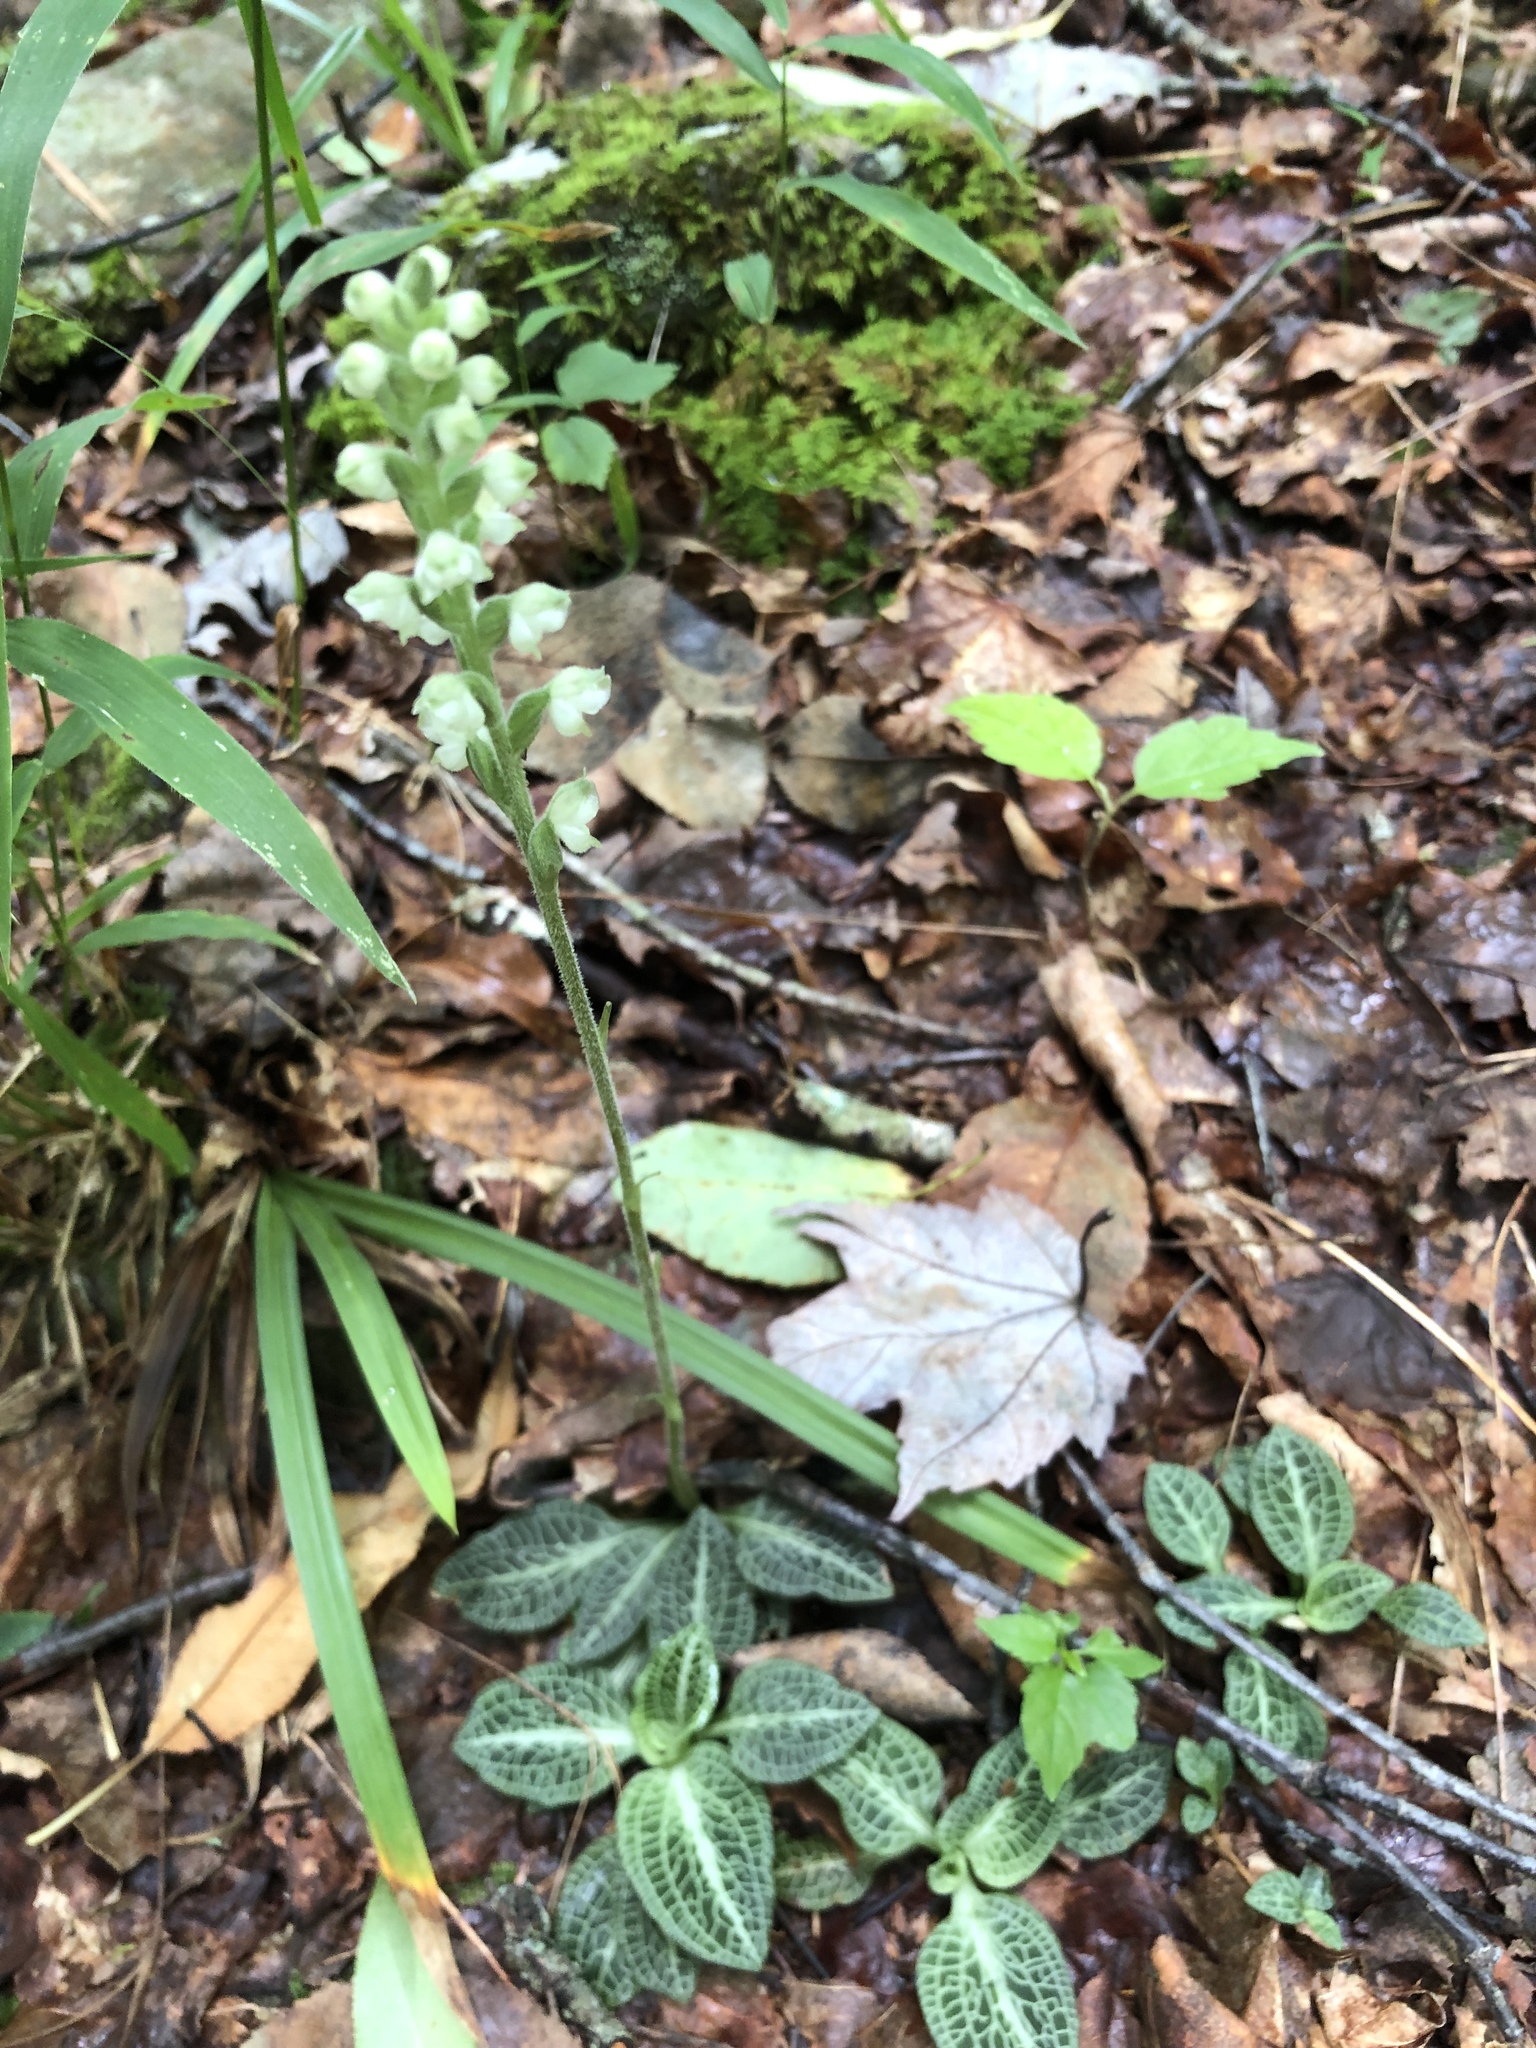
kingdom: Plantae
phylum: Tracheophyta
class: Liliopsida
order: Asparagales
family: Orchidaceae
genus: Goodyera
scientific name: Goodyera pubescens
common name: Downy rattlesnake-plantain
